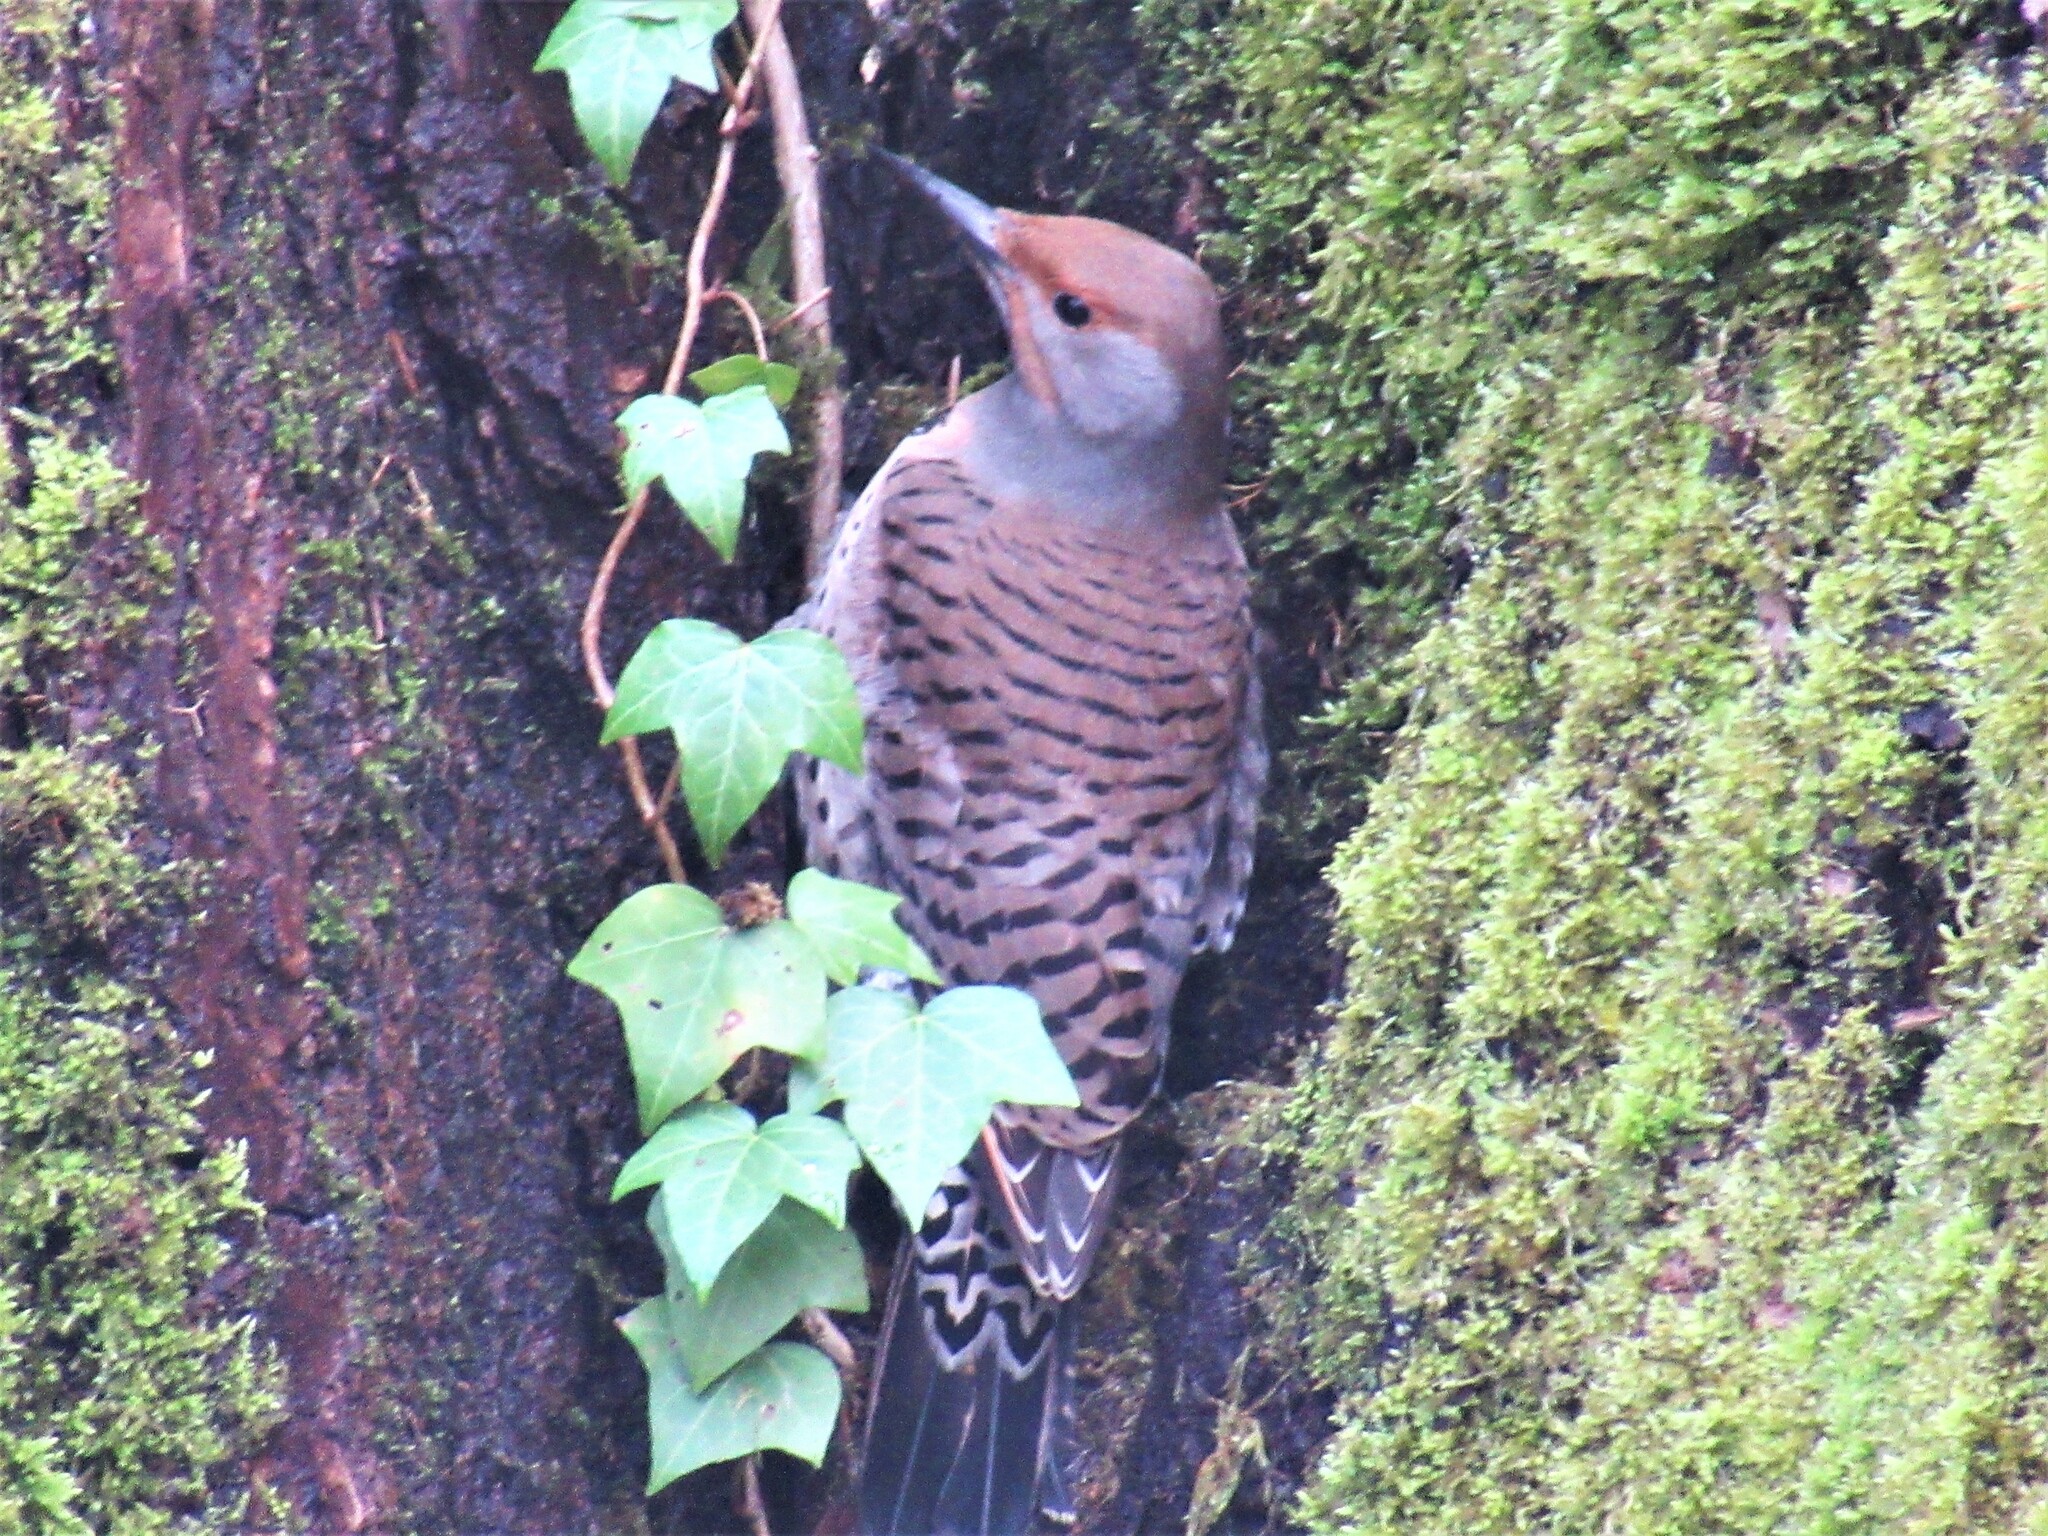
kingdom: Animalia
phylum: Chordata
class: Aves
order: Piciformes
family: Picidae
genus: Colaptes
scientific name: Colaptes auratus
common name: Northern flicker
